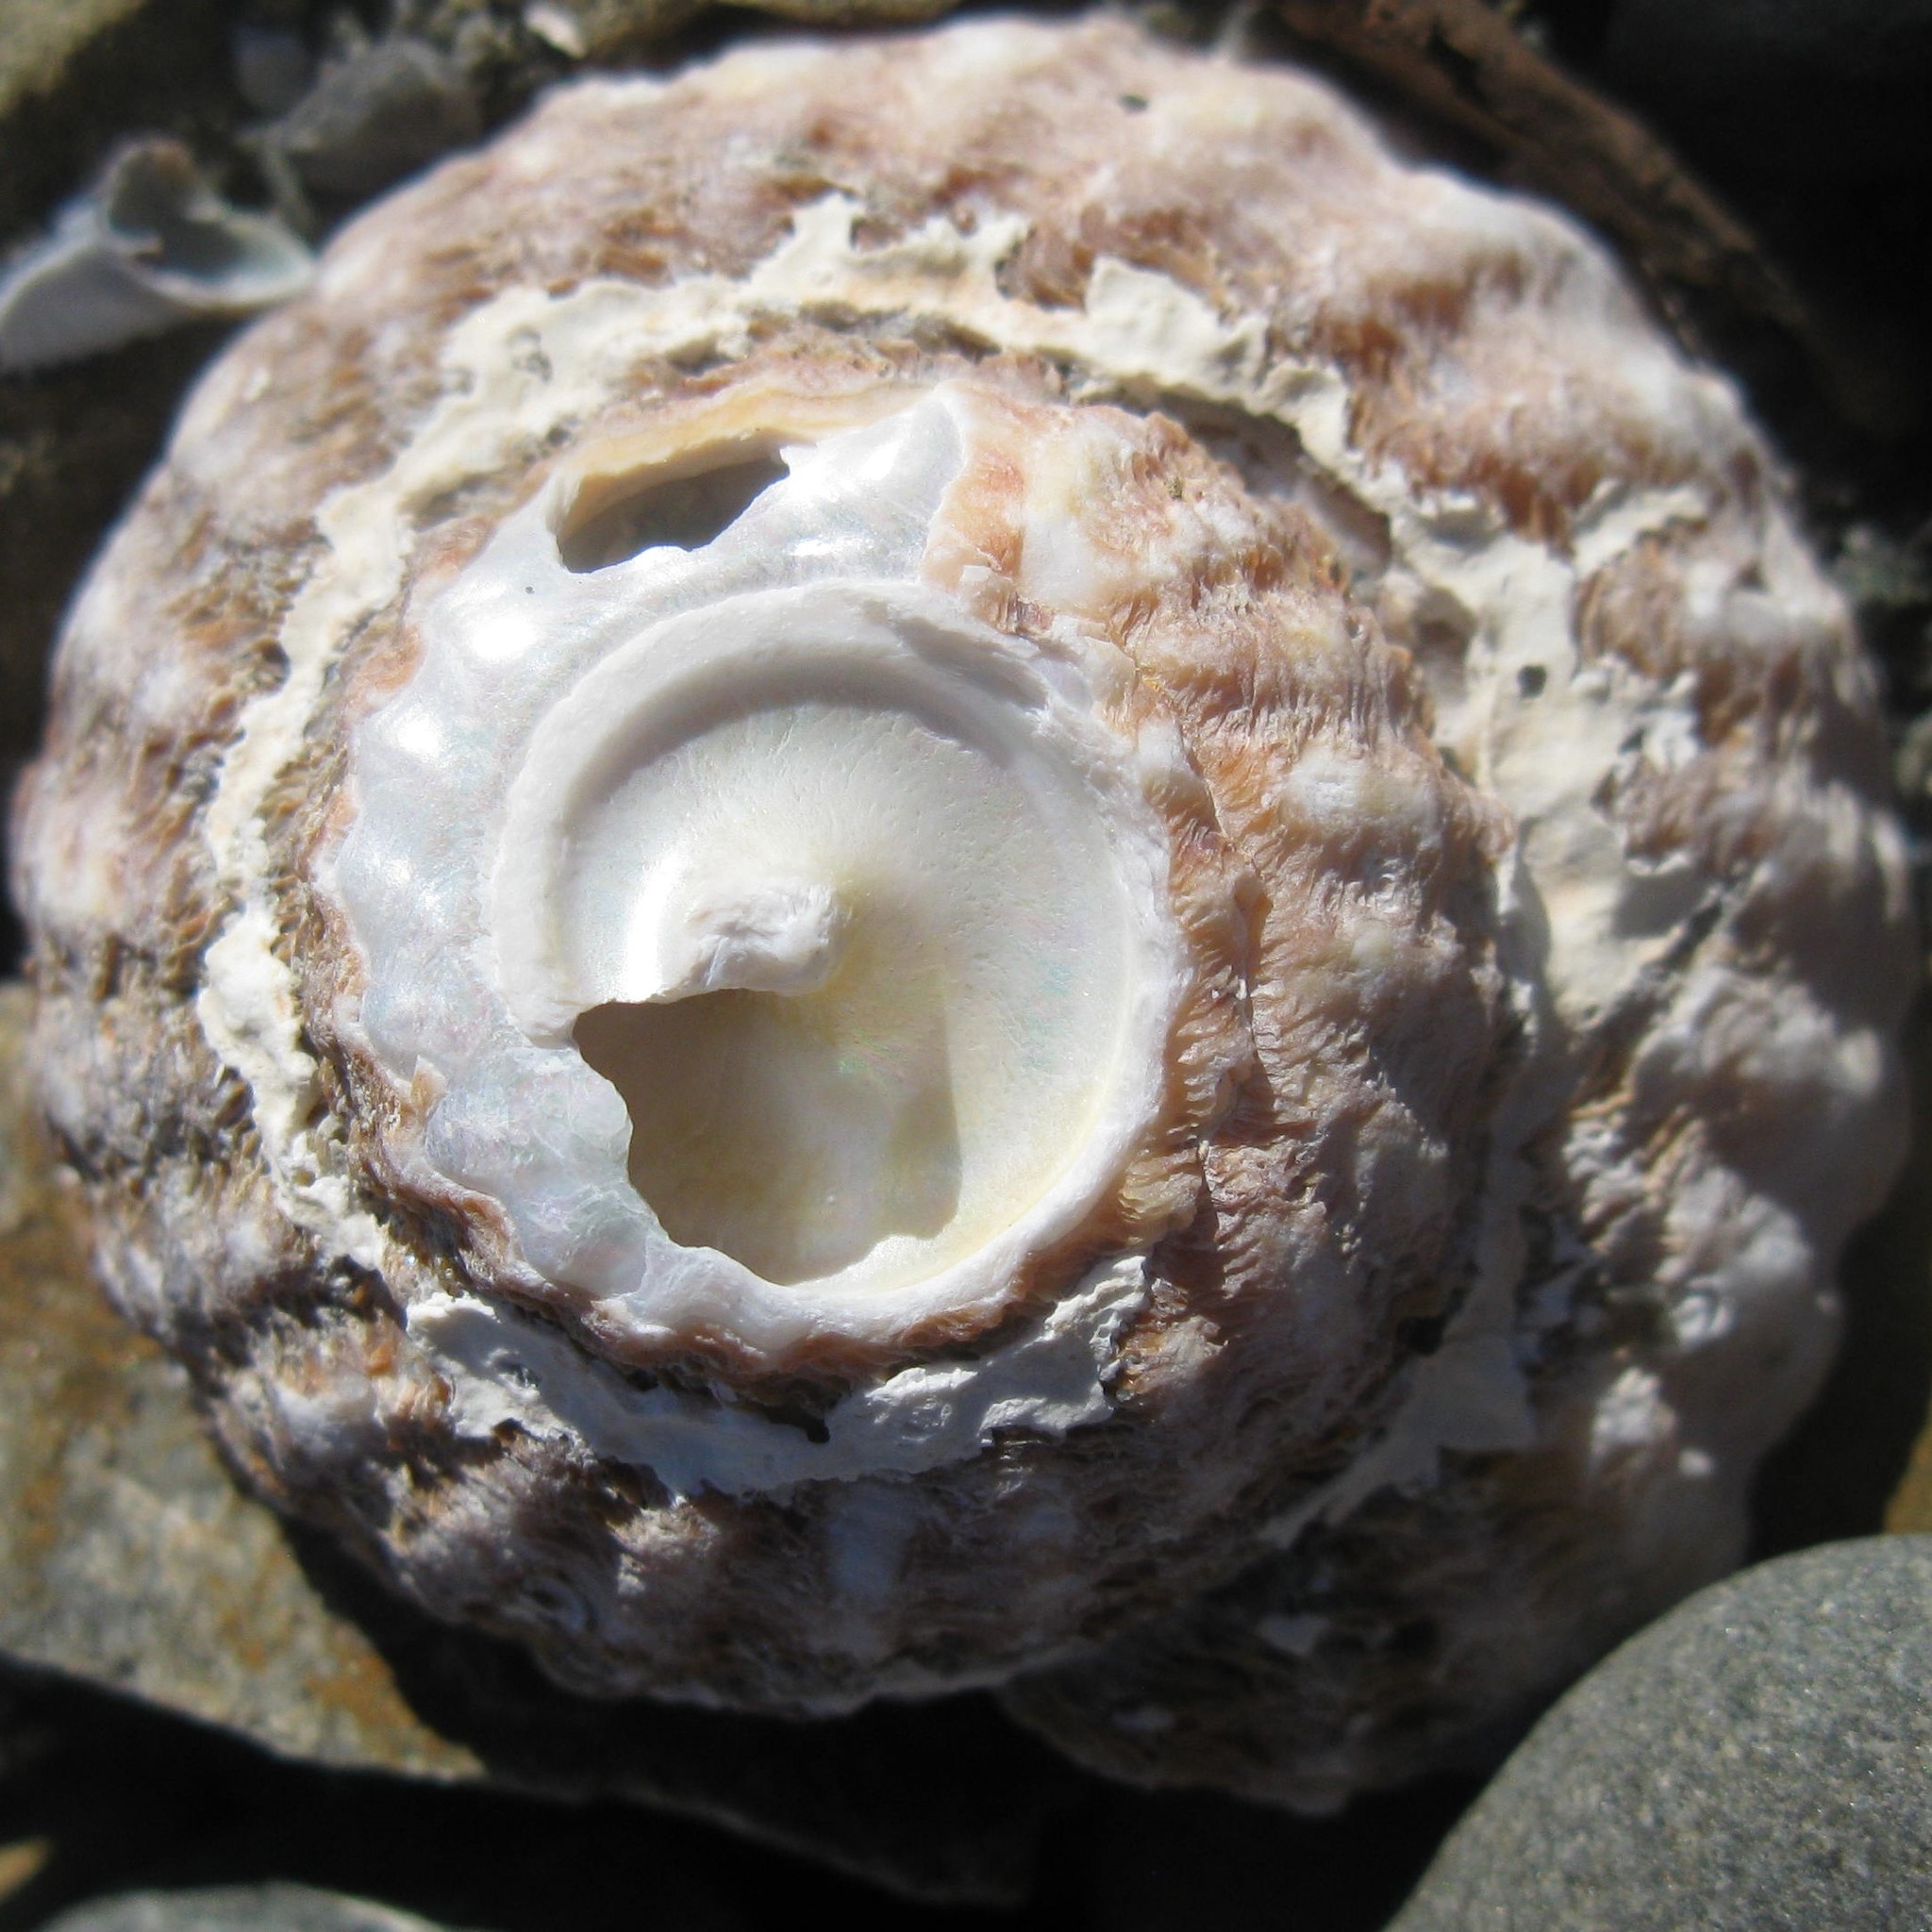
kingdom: Animalia
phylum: Mollusca
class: Gastropoda
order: Trochida
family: Turbinidae
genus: Cookia
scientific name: Cookia sulcata
